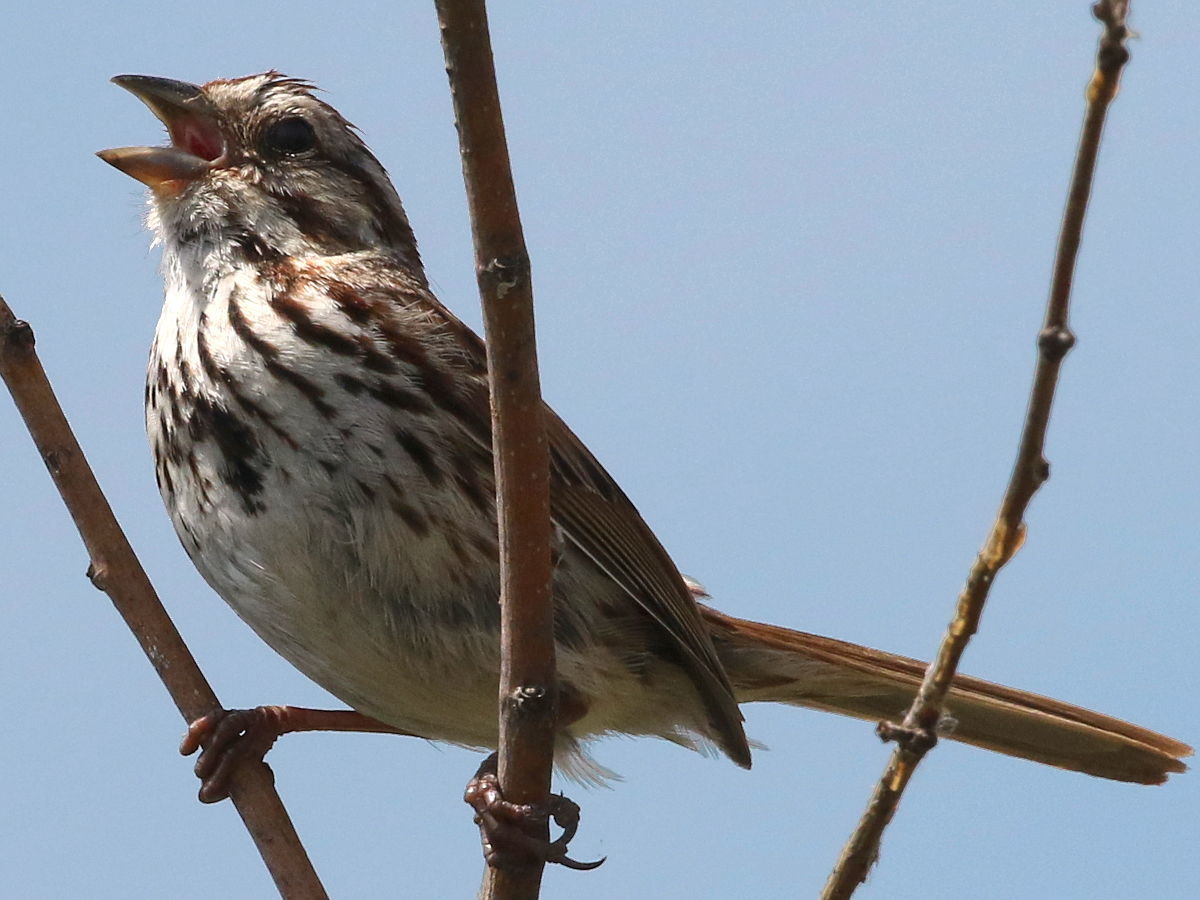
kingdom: Animalia
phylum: Chordata
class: Aves
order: Passeriformes
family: Passerellidae
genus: Melospiza
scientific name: Melospiza melodia
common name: Song sparrow
